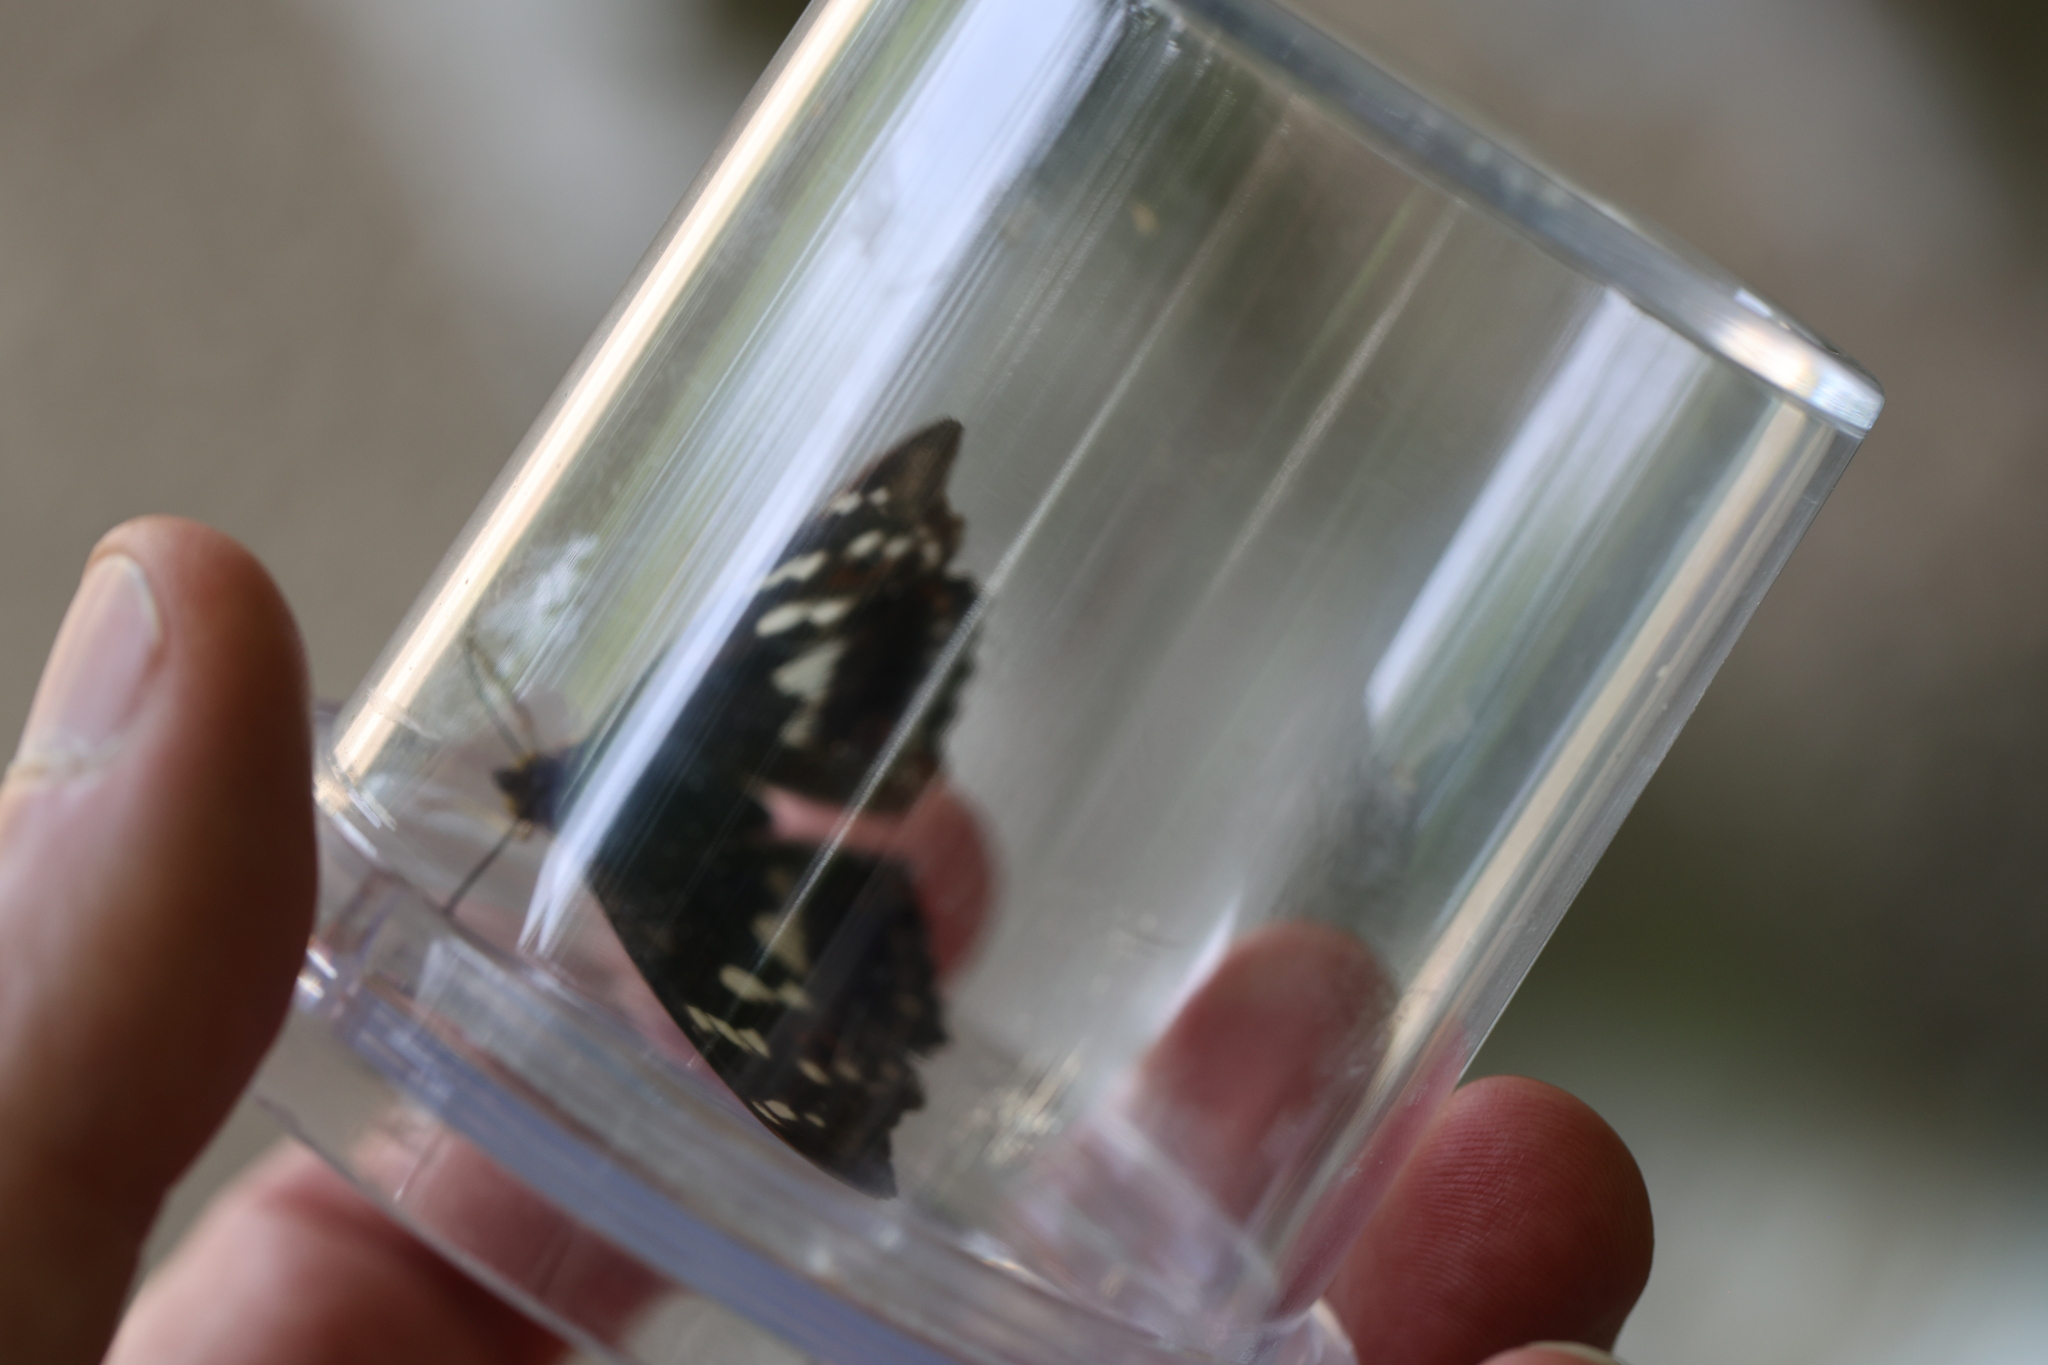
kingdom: Animalia
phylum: Arthropoda
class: Insecta
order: Lepidoptera
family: Nymphalidae
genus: Apatura
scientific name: Apatura ilia
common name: Lesser purple emperor
